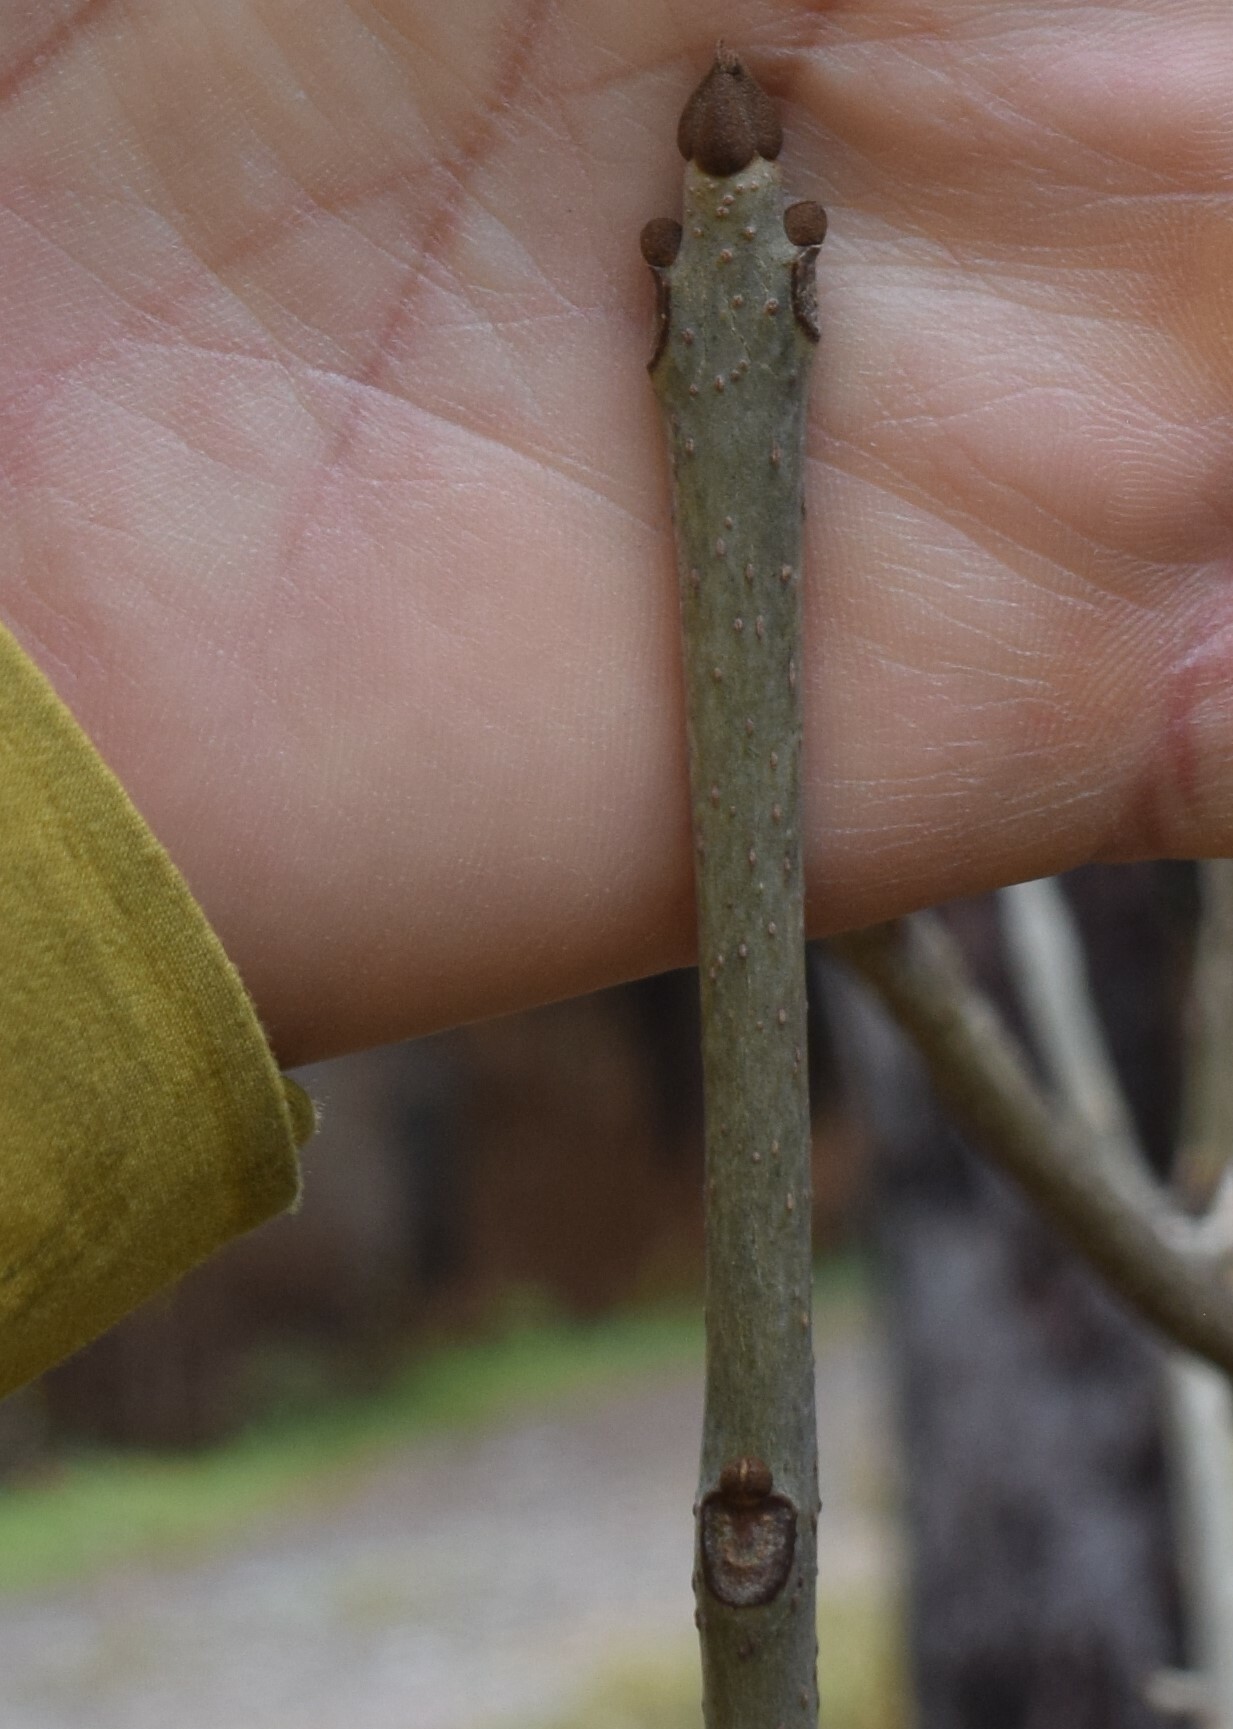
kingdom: Plantae
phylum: Tracheophyta
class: Magnoliopsida
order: Lamiales
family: Oleaceae
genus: Fraxinus
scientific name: Fraxinus nigra
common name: Black ash
